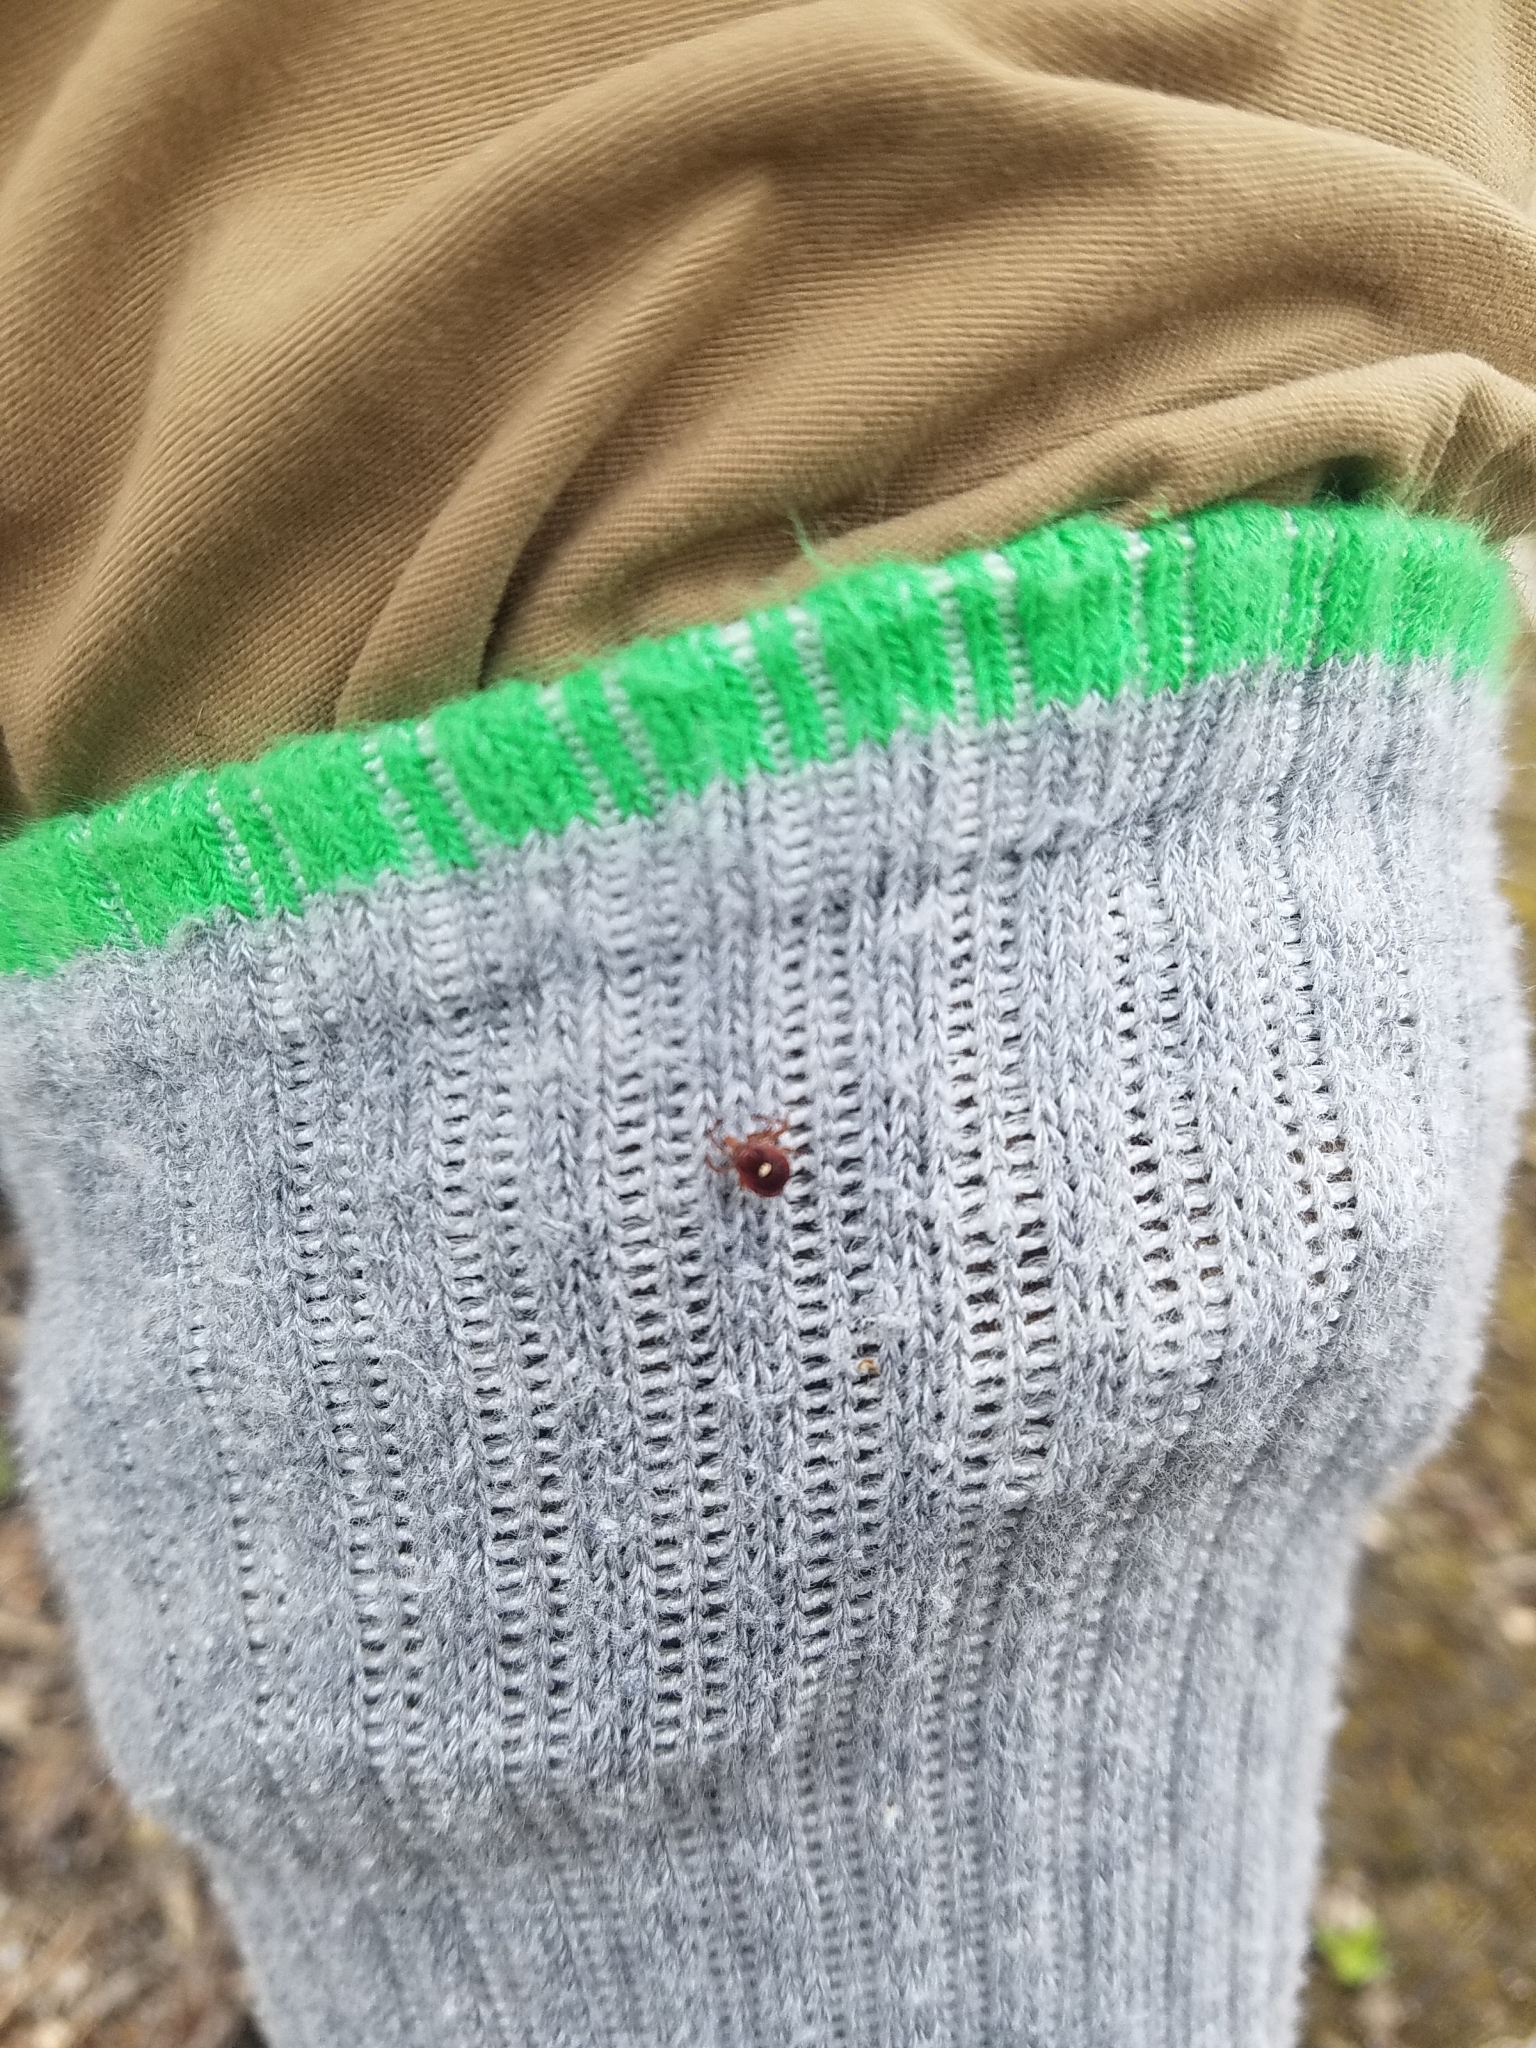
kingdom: Animalia
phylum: Arthropoda
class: Arachnida
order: Ixodida
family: Ixodidae
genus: Amblyomma
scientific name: Amblyomma americanum
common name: Lone star tick
